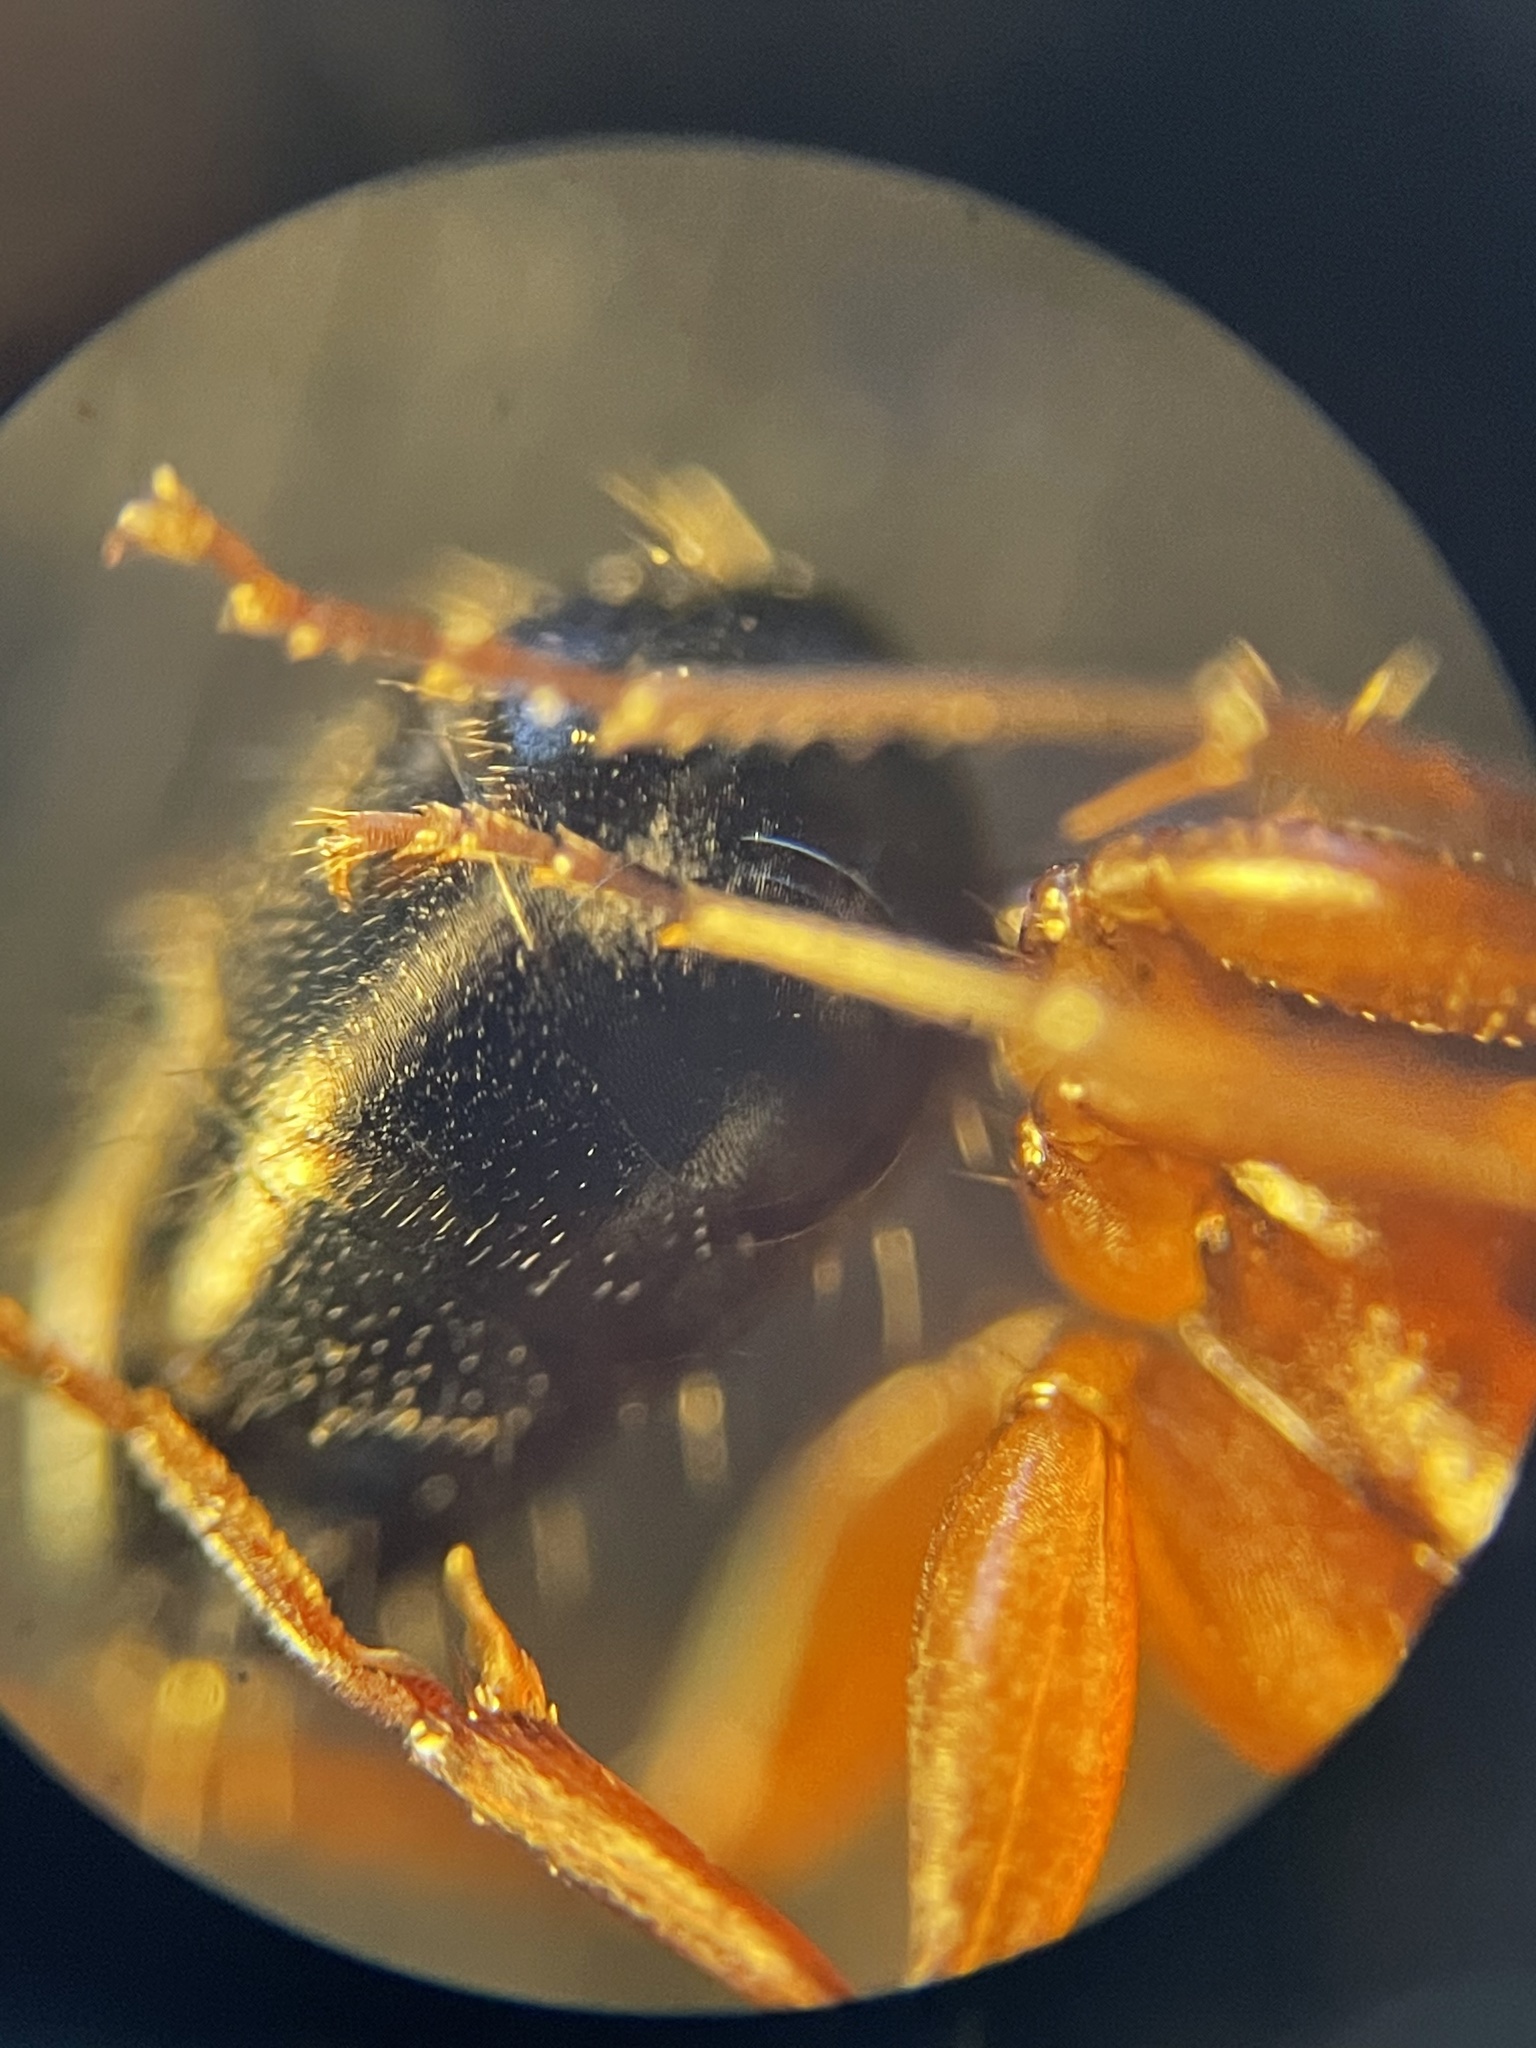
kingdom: Animalia
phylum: Arthropoda
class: Insecta
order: Hymenoptera
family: Formicidae
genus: Camponotus
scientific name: Camponotus decipiens
